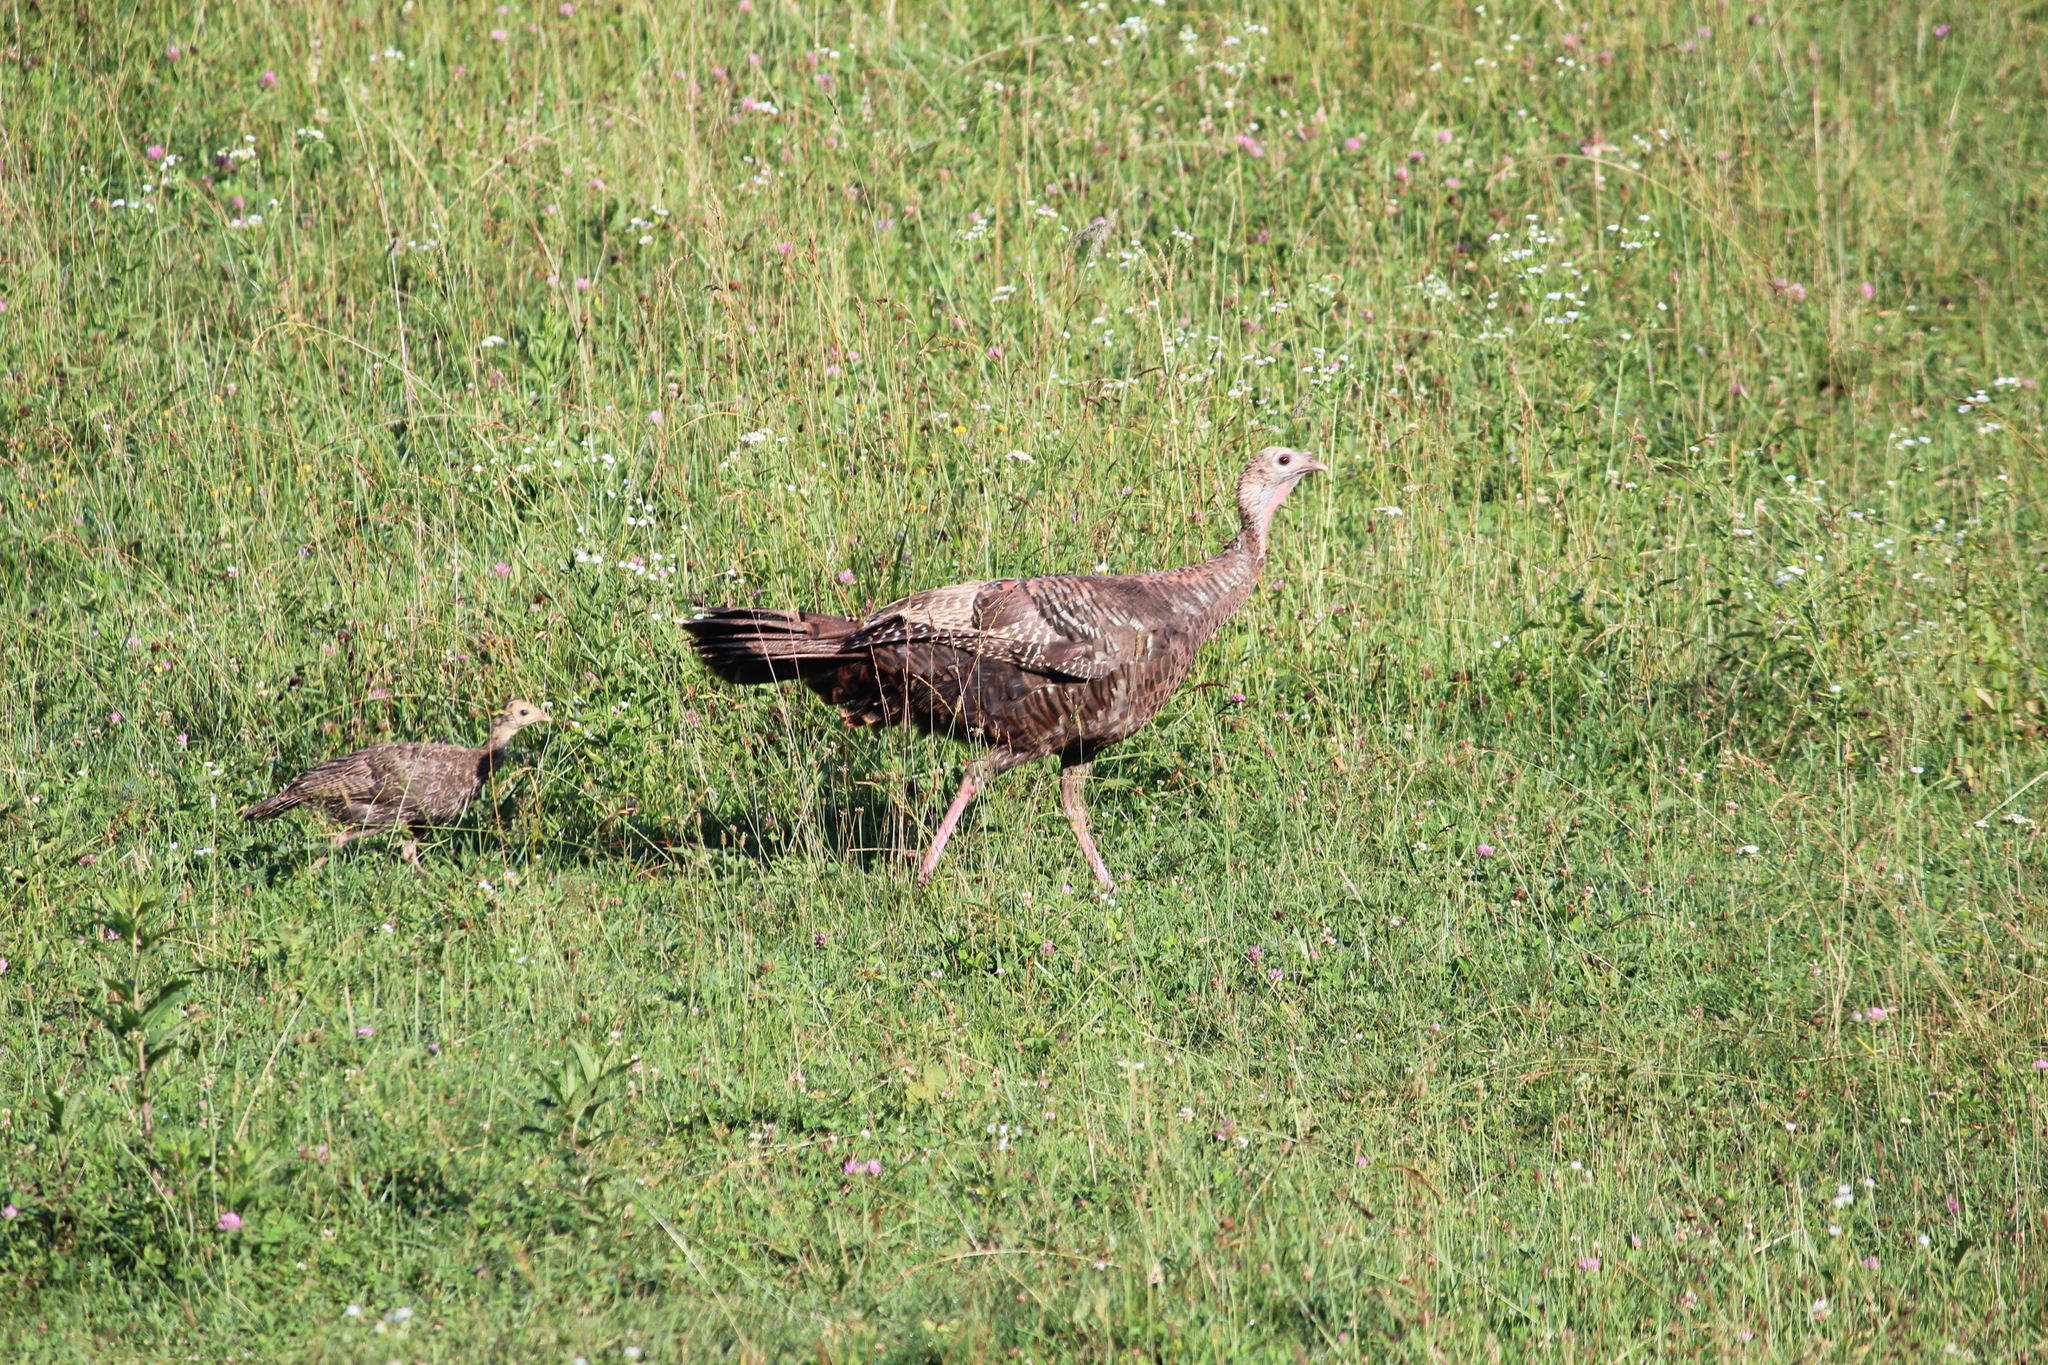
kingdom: Animalia
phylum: Chordata
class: Aves
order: Galliformes
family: Phasianidae
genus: Meleagris
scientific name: Meleagris gallopavo
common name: Wild turkey
